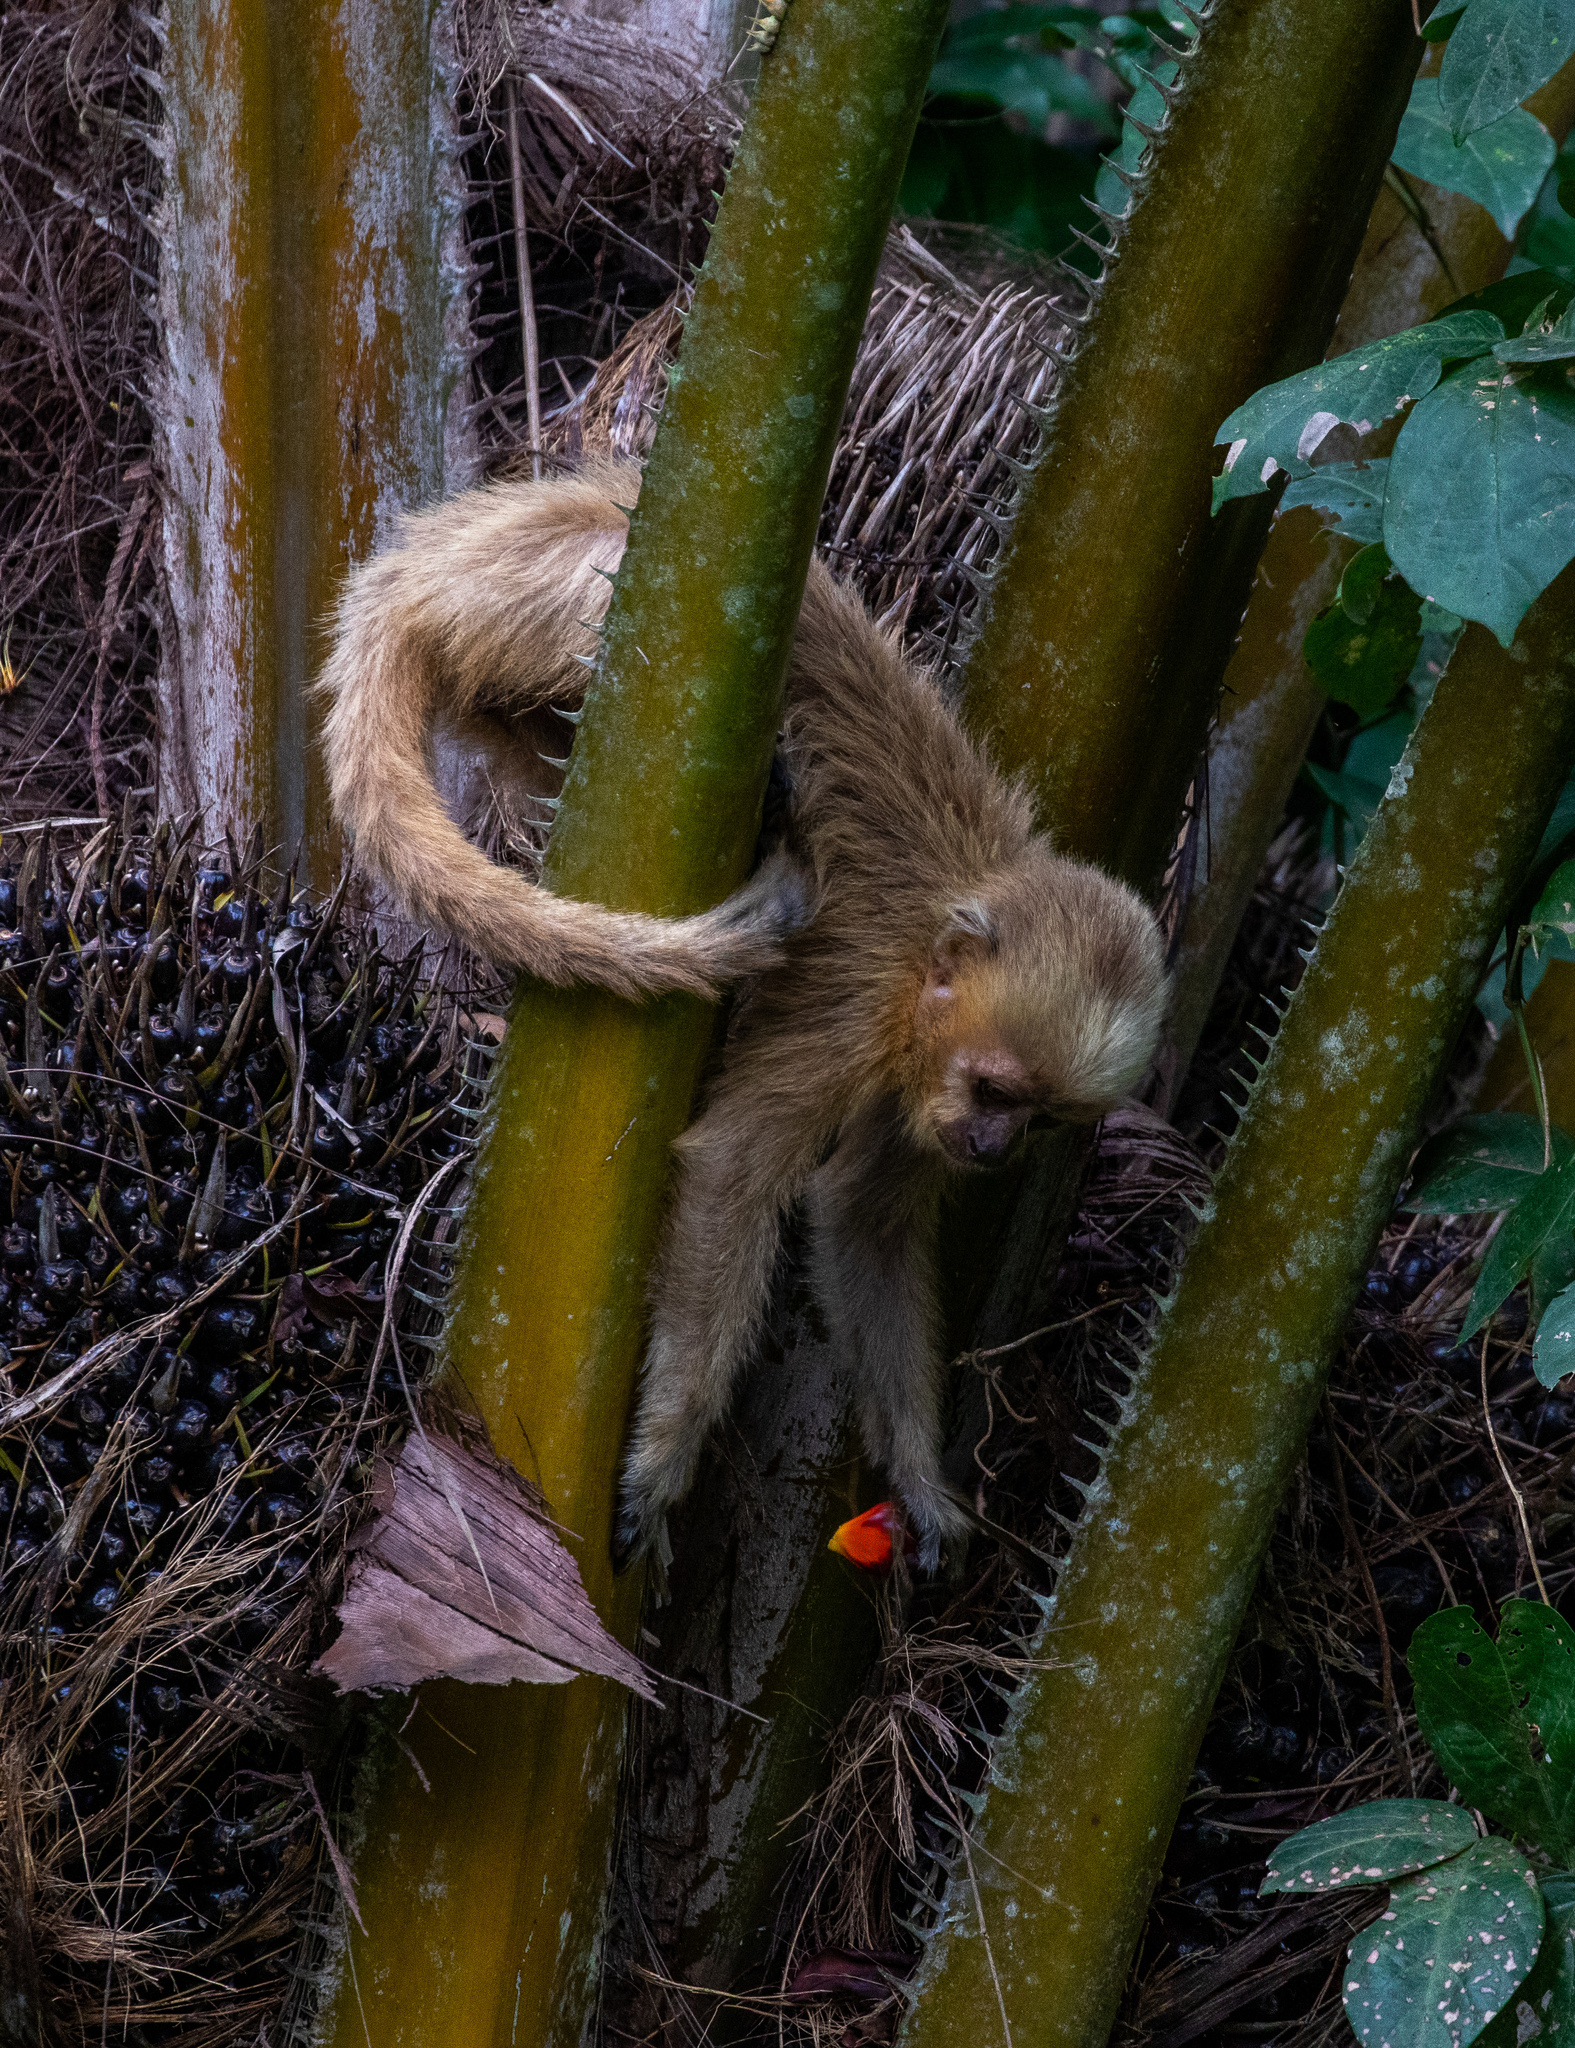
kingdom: Animalia
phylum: Chordata
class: Mammalia
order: Primates
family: Cebidae
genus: Sapajus
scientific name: Sapajus flavius
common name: Blond capuchin
